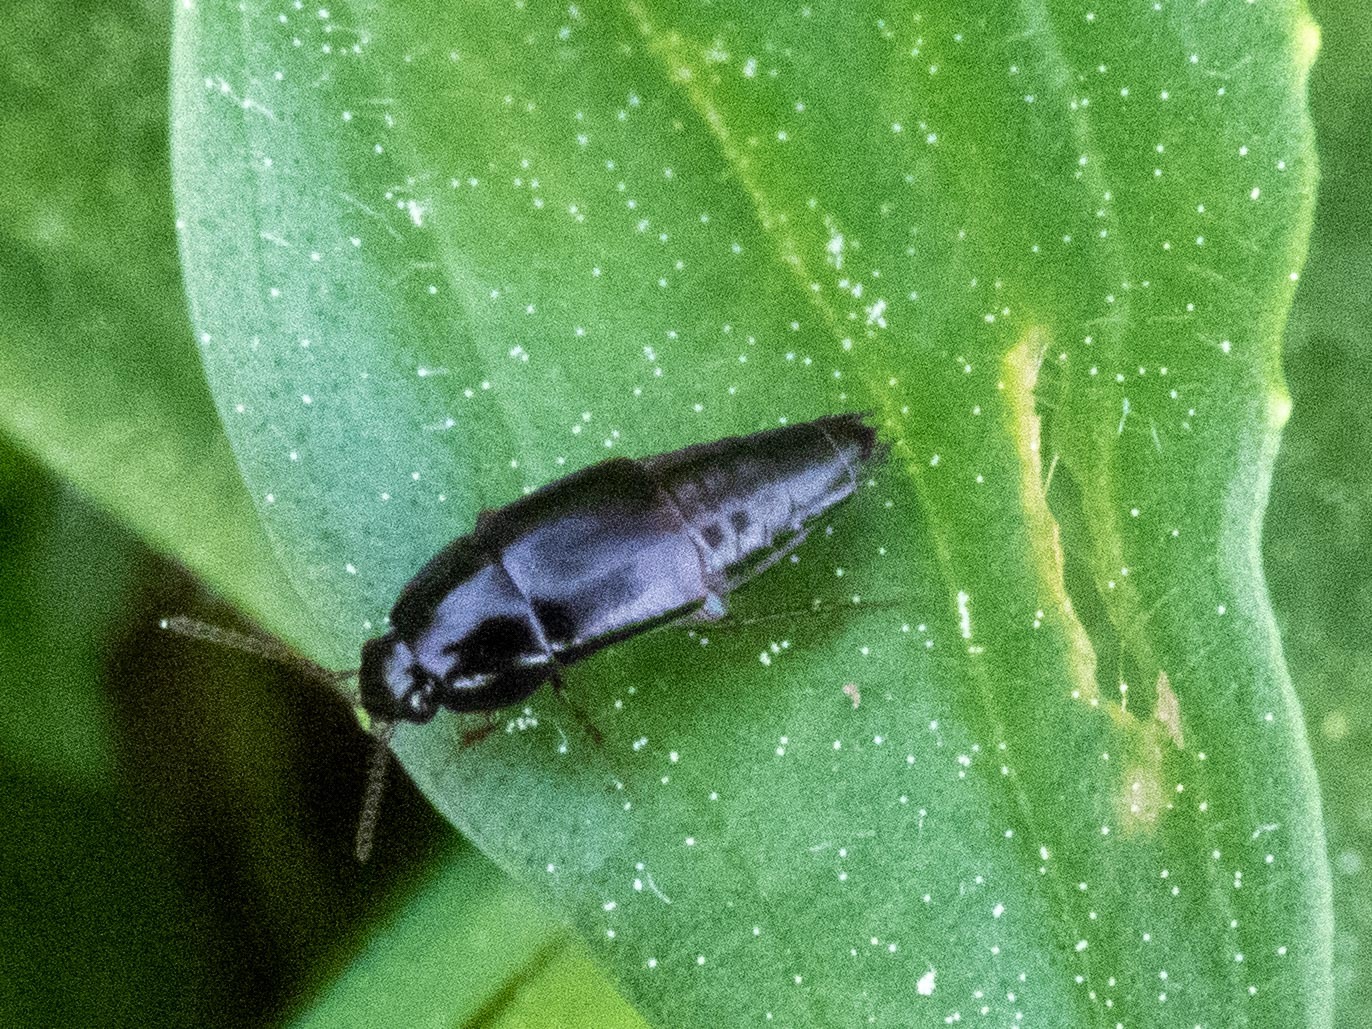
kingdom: Animalia
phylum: Arthropoda
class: Insecta
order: Coleoptera
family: Staphylinidae
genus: Tachinus
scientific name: Tachinus rufipes
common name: Rove beetle
